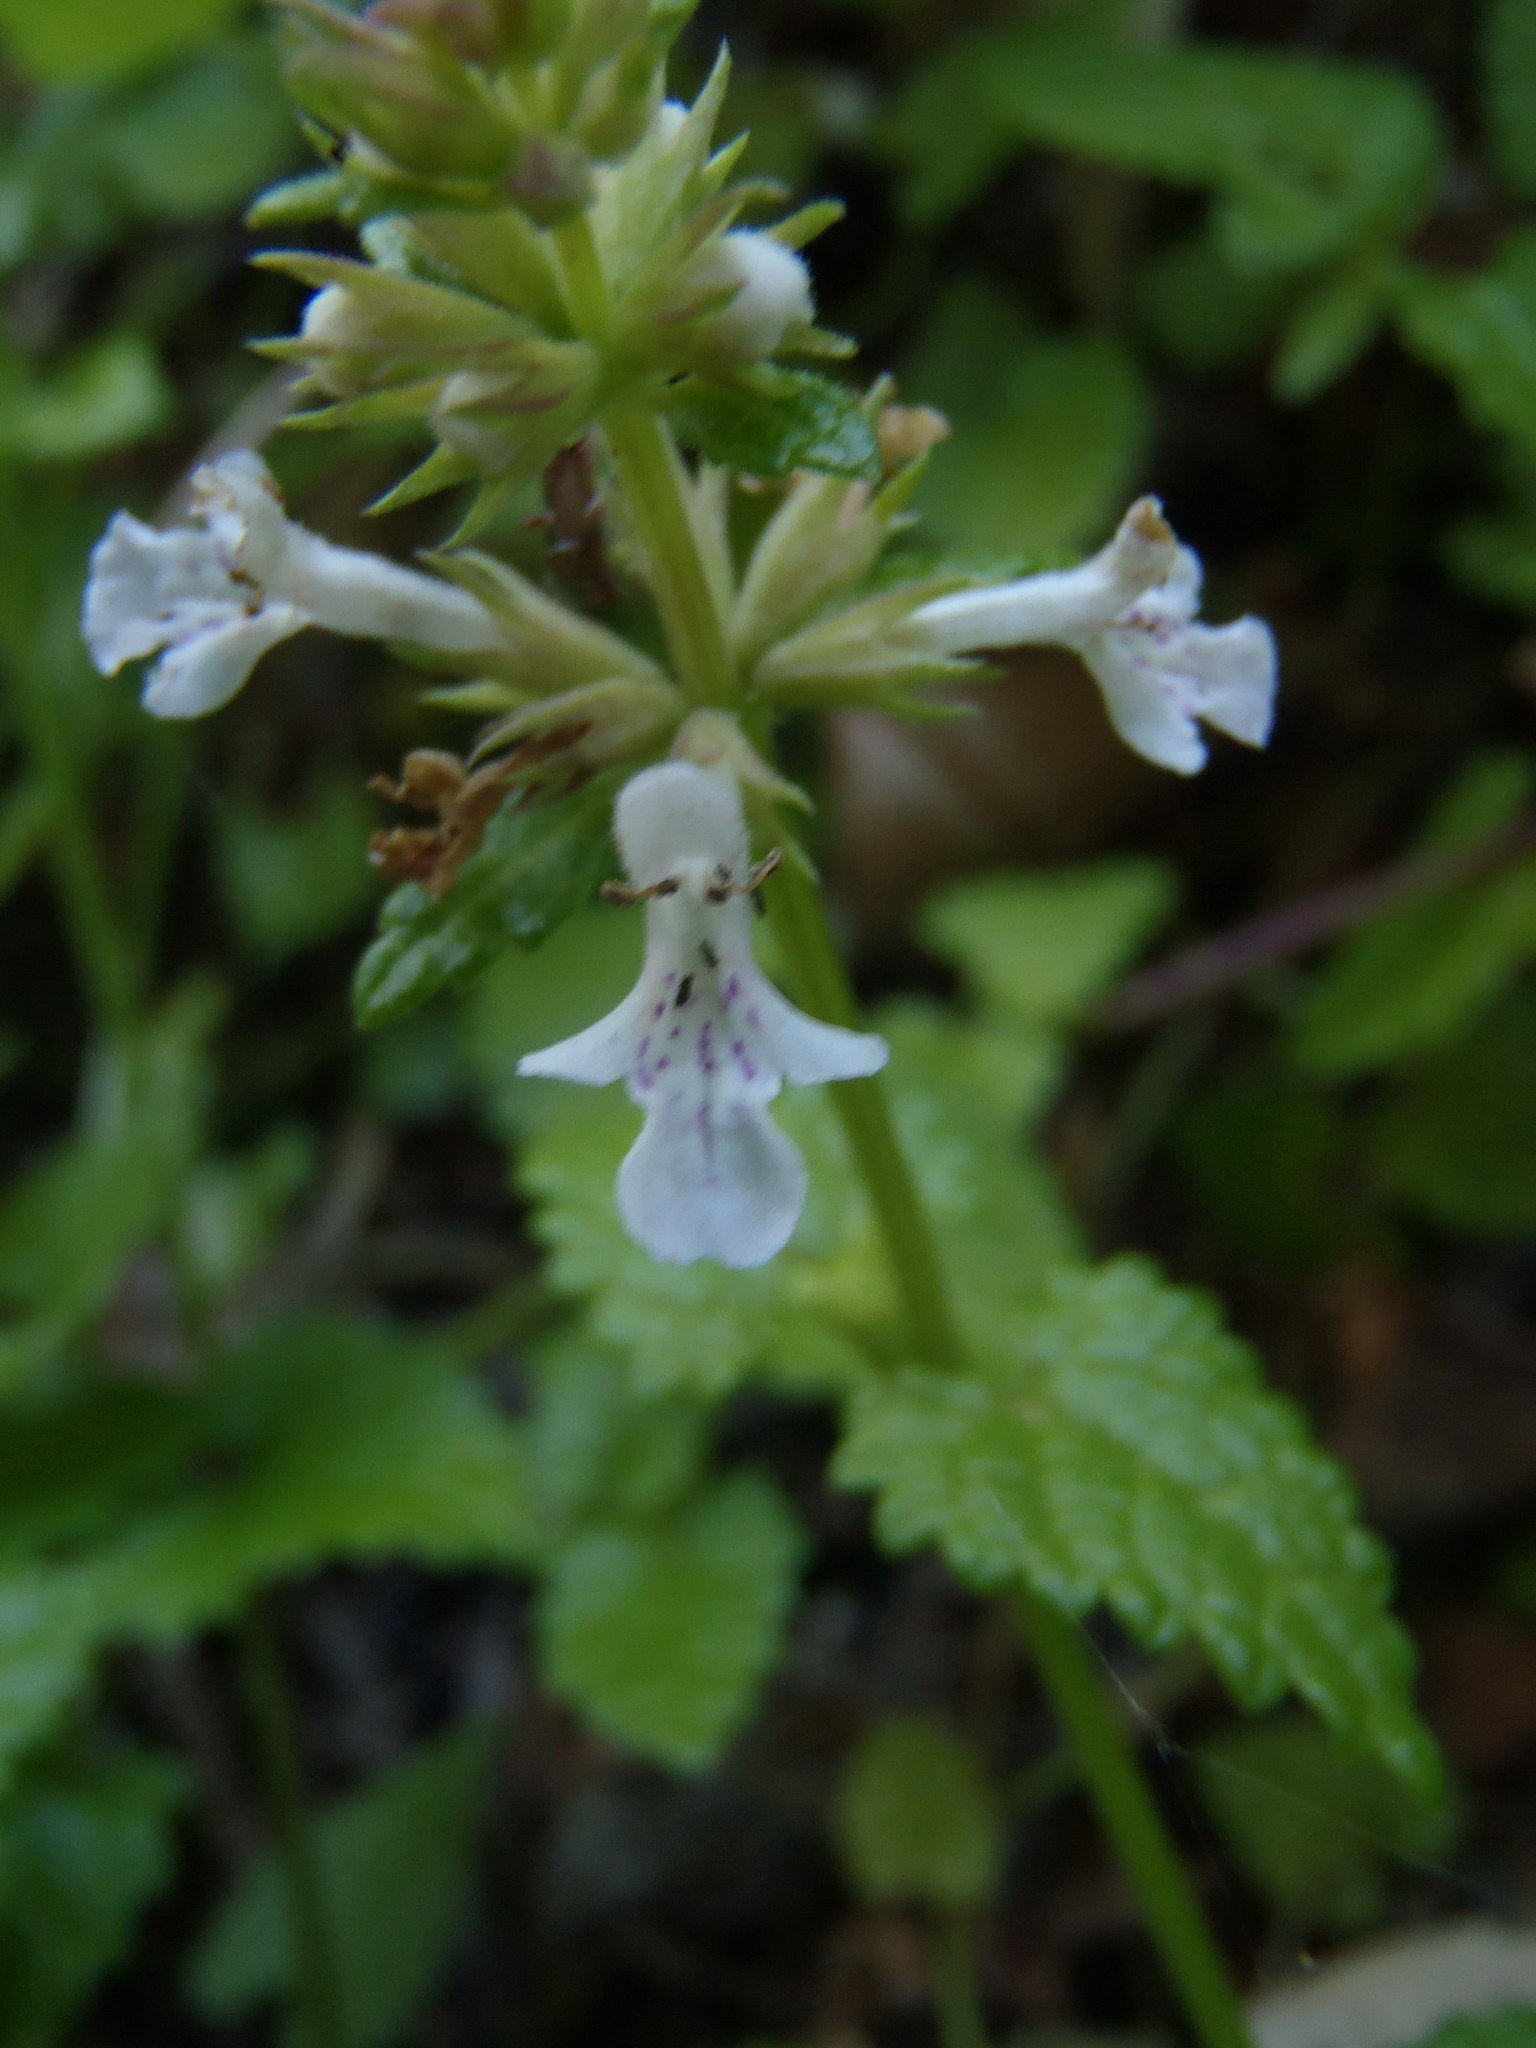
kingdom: Plantae
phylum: Tracheophyta
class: Magnoliopsida
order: Lamiales
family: Lamiaceae
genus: Stachys
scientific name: Stachys aethiopica
